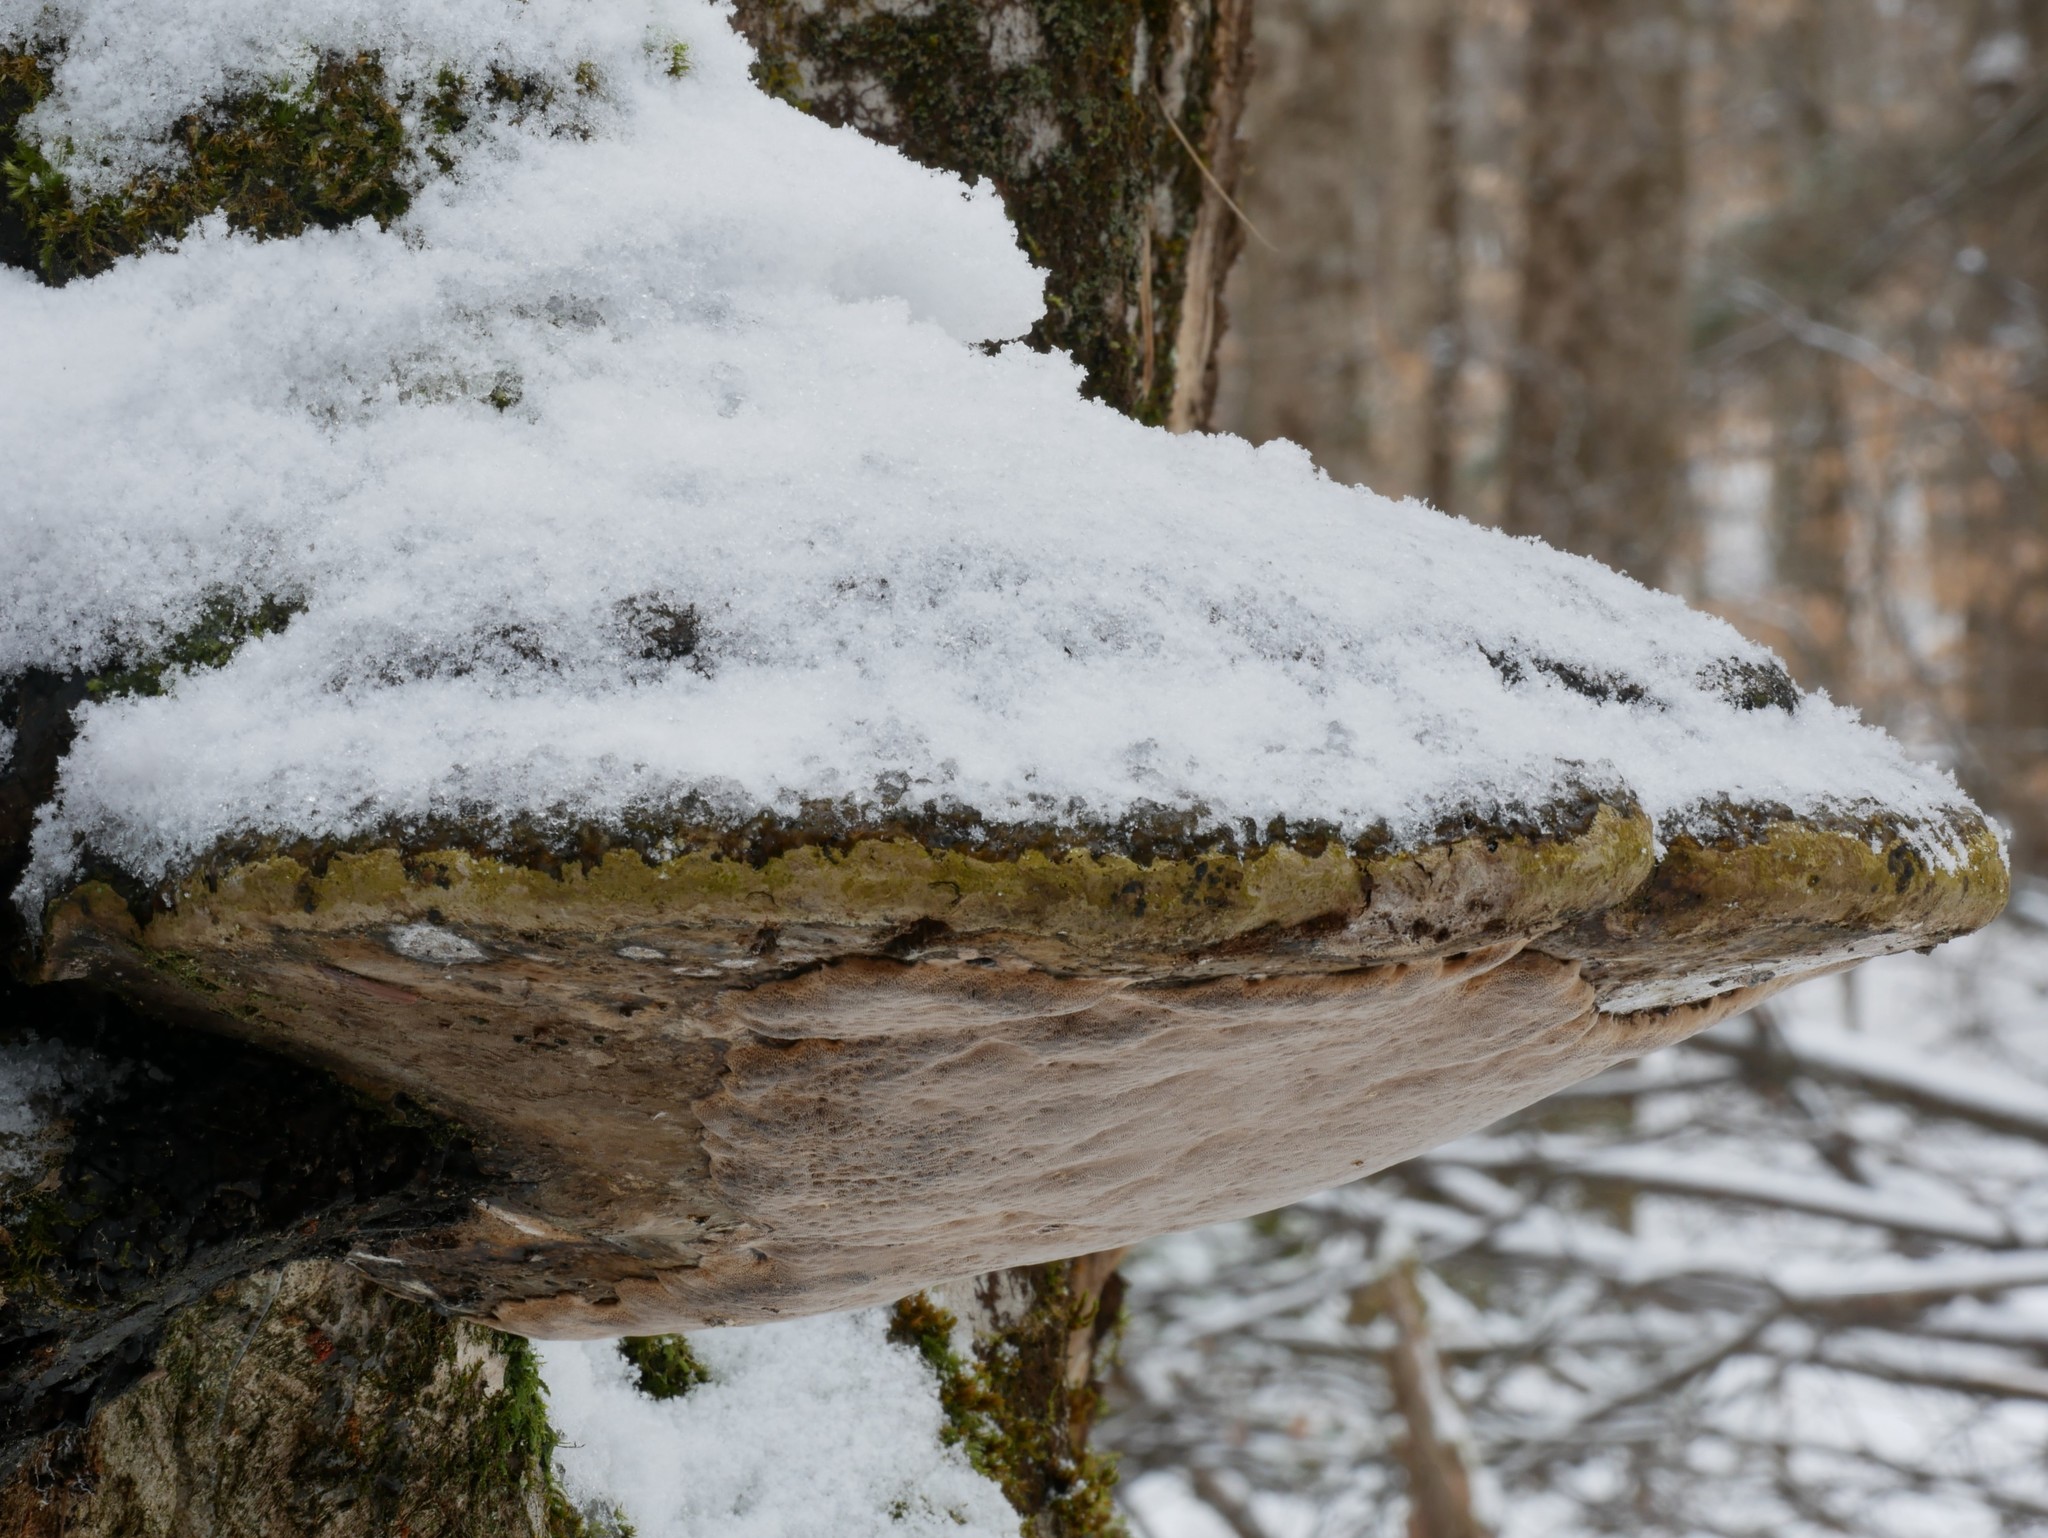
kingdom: Fungi
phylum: Basidiomycota
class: Agaricomycetes
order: Hymenochaetales
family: Hymenochaetaceae
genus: Phellinus
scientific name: Phellinus igniarius
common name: Willow bracket
